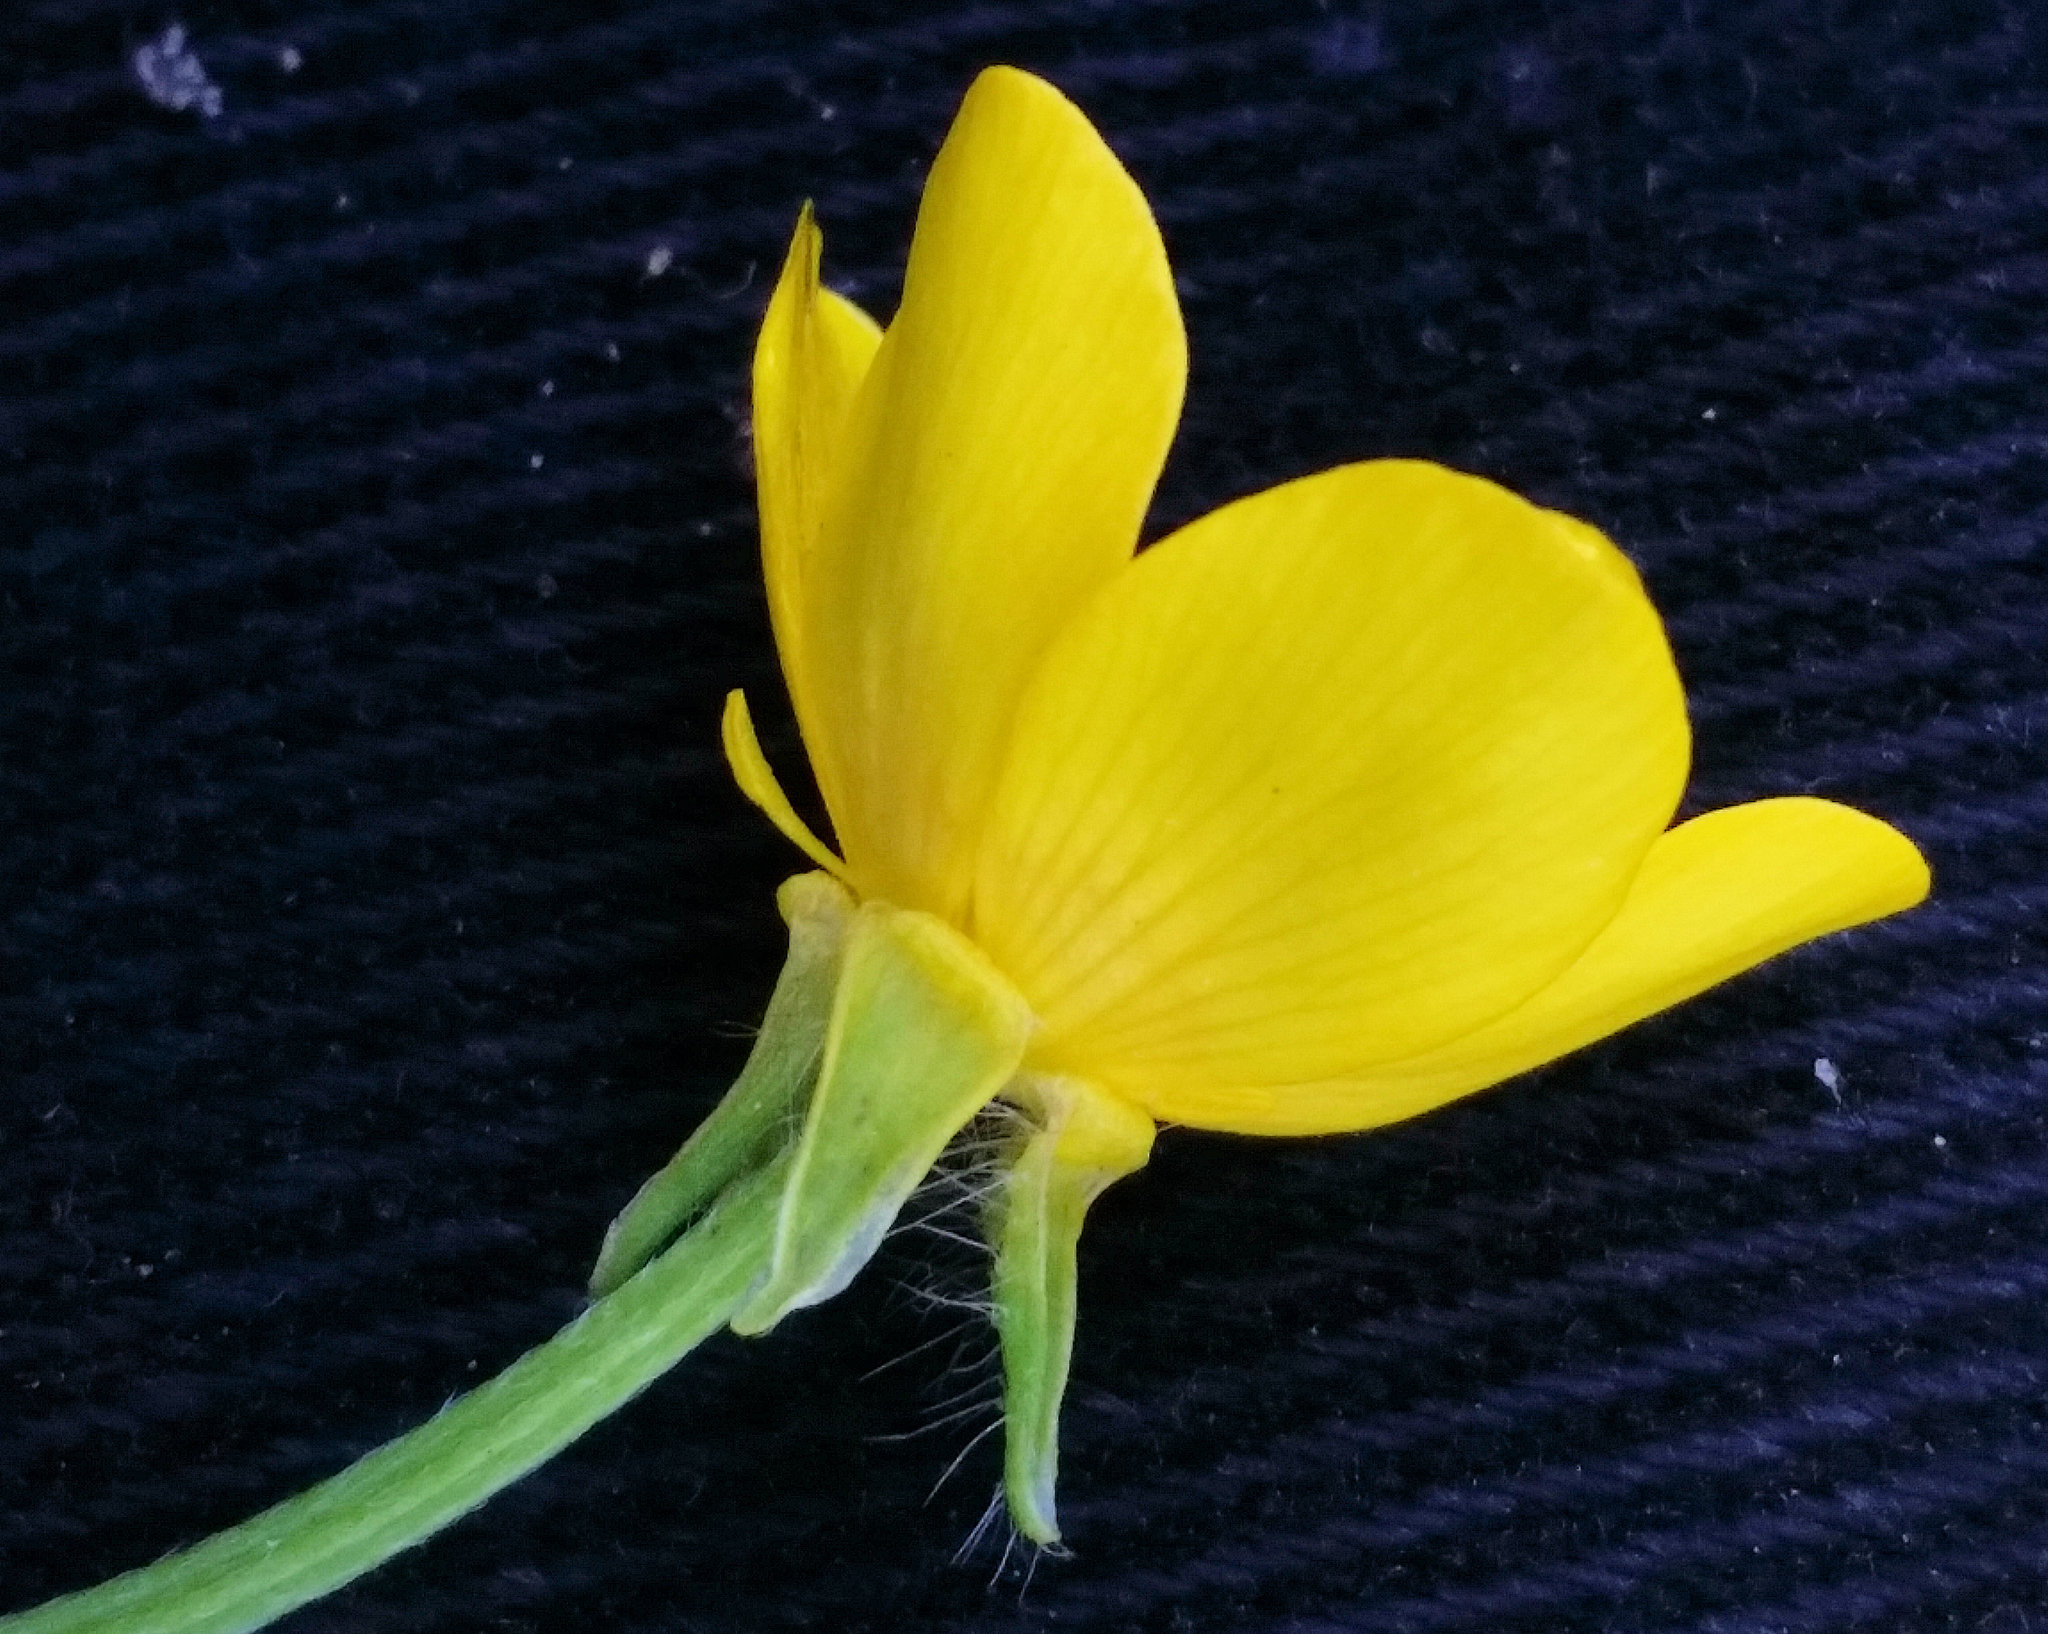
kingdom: Plantae
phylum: Tracheophyta
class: Magnoliopsida
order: Ranunculales
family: Ranunculaceae
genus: Ranunculus
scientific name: Ranunculus bulbosus
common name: Bulbous buttercup
